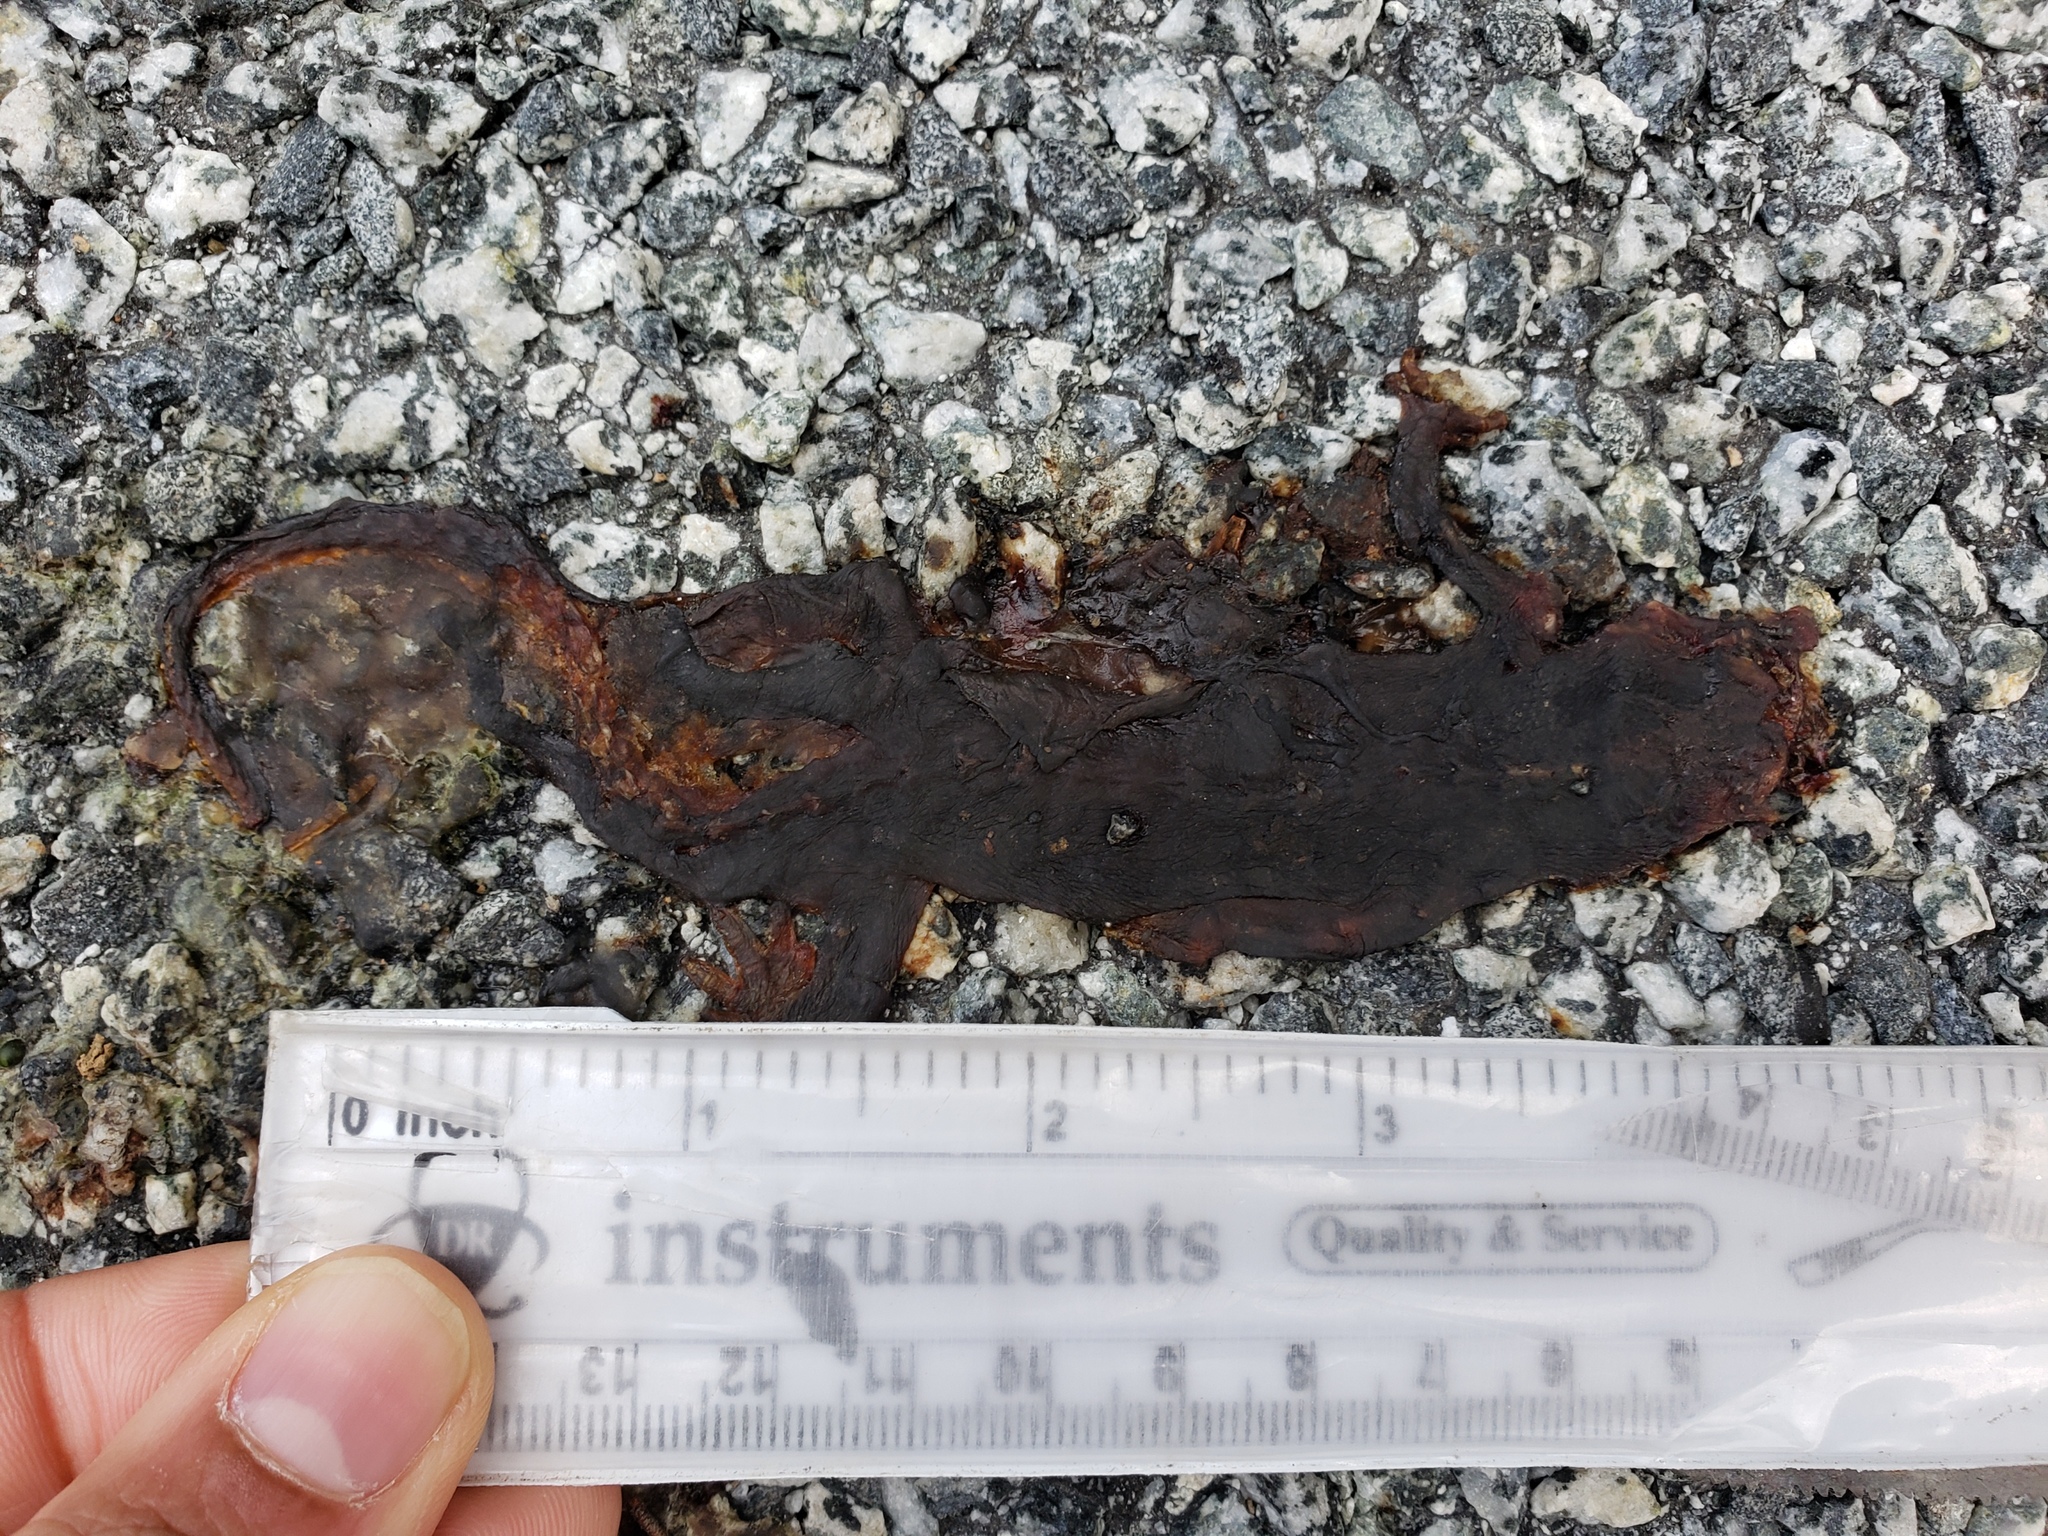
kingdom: Animalia
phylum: Chordata
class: Amphibia
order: Caudata
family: Salamandridae
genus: Taricha
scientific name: Taricha
